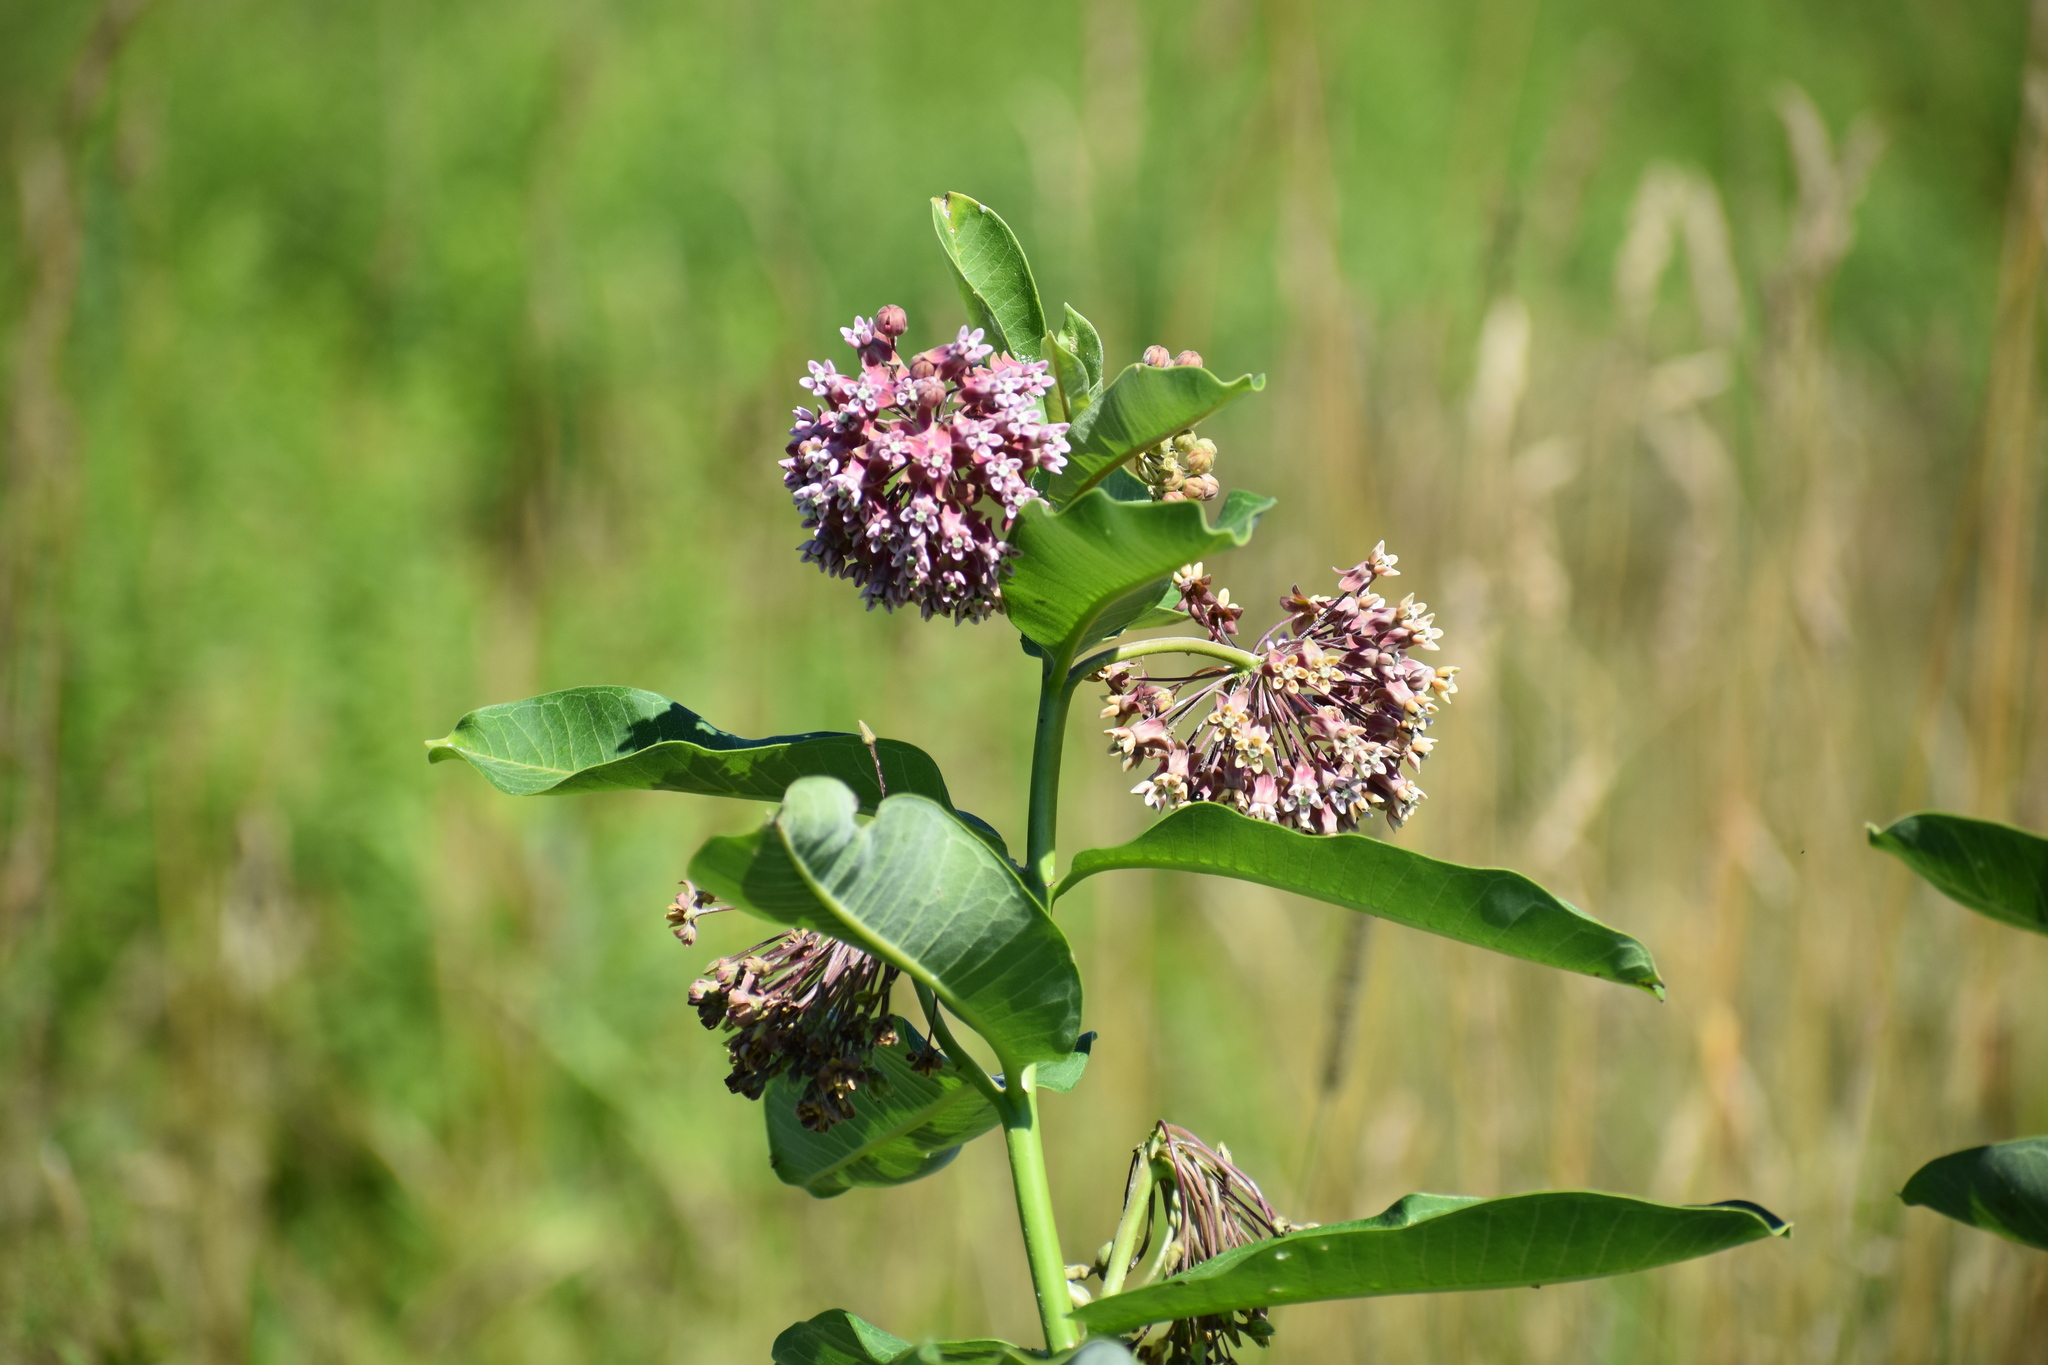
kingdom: Plantae
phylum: Tracheophyta
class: Magnoliopsida
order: Gentianales
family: Apocynaceae
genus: Asclepias
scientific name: Asclepias syriaca
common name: Common milkweed
